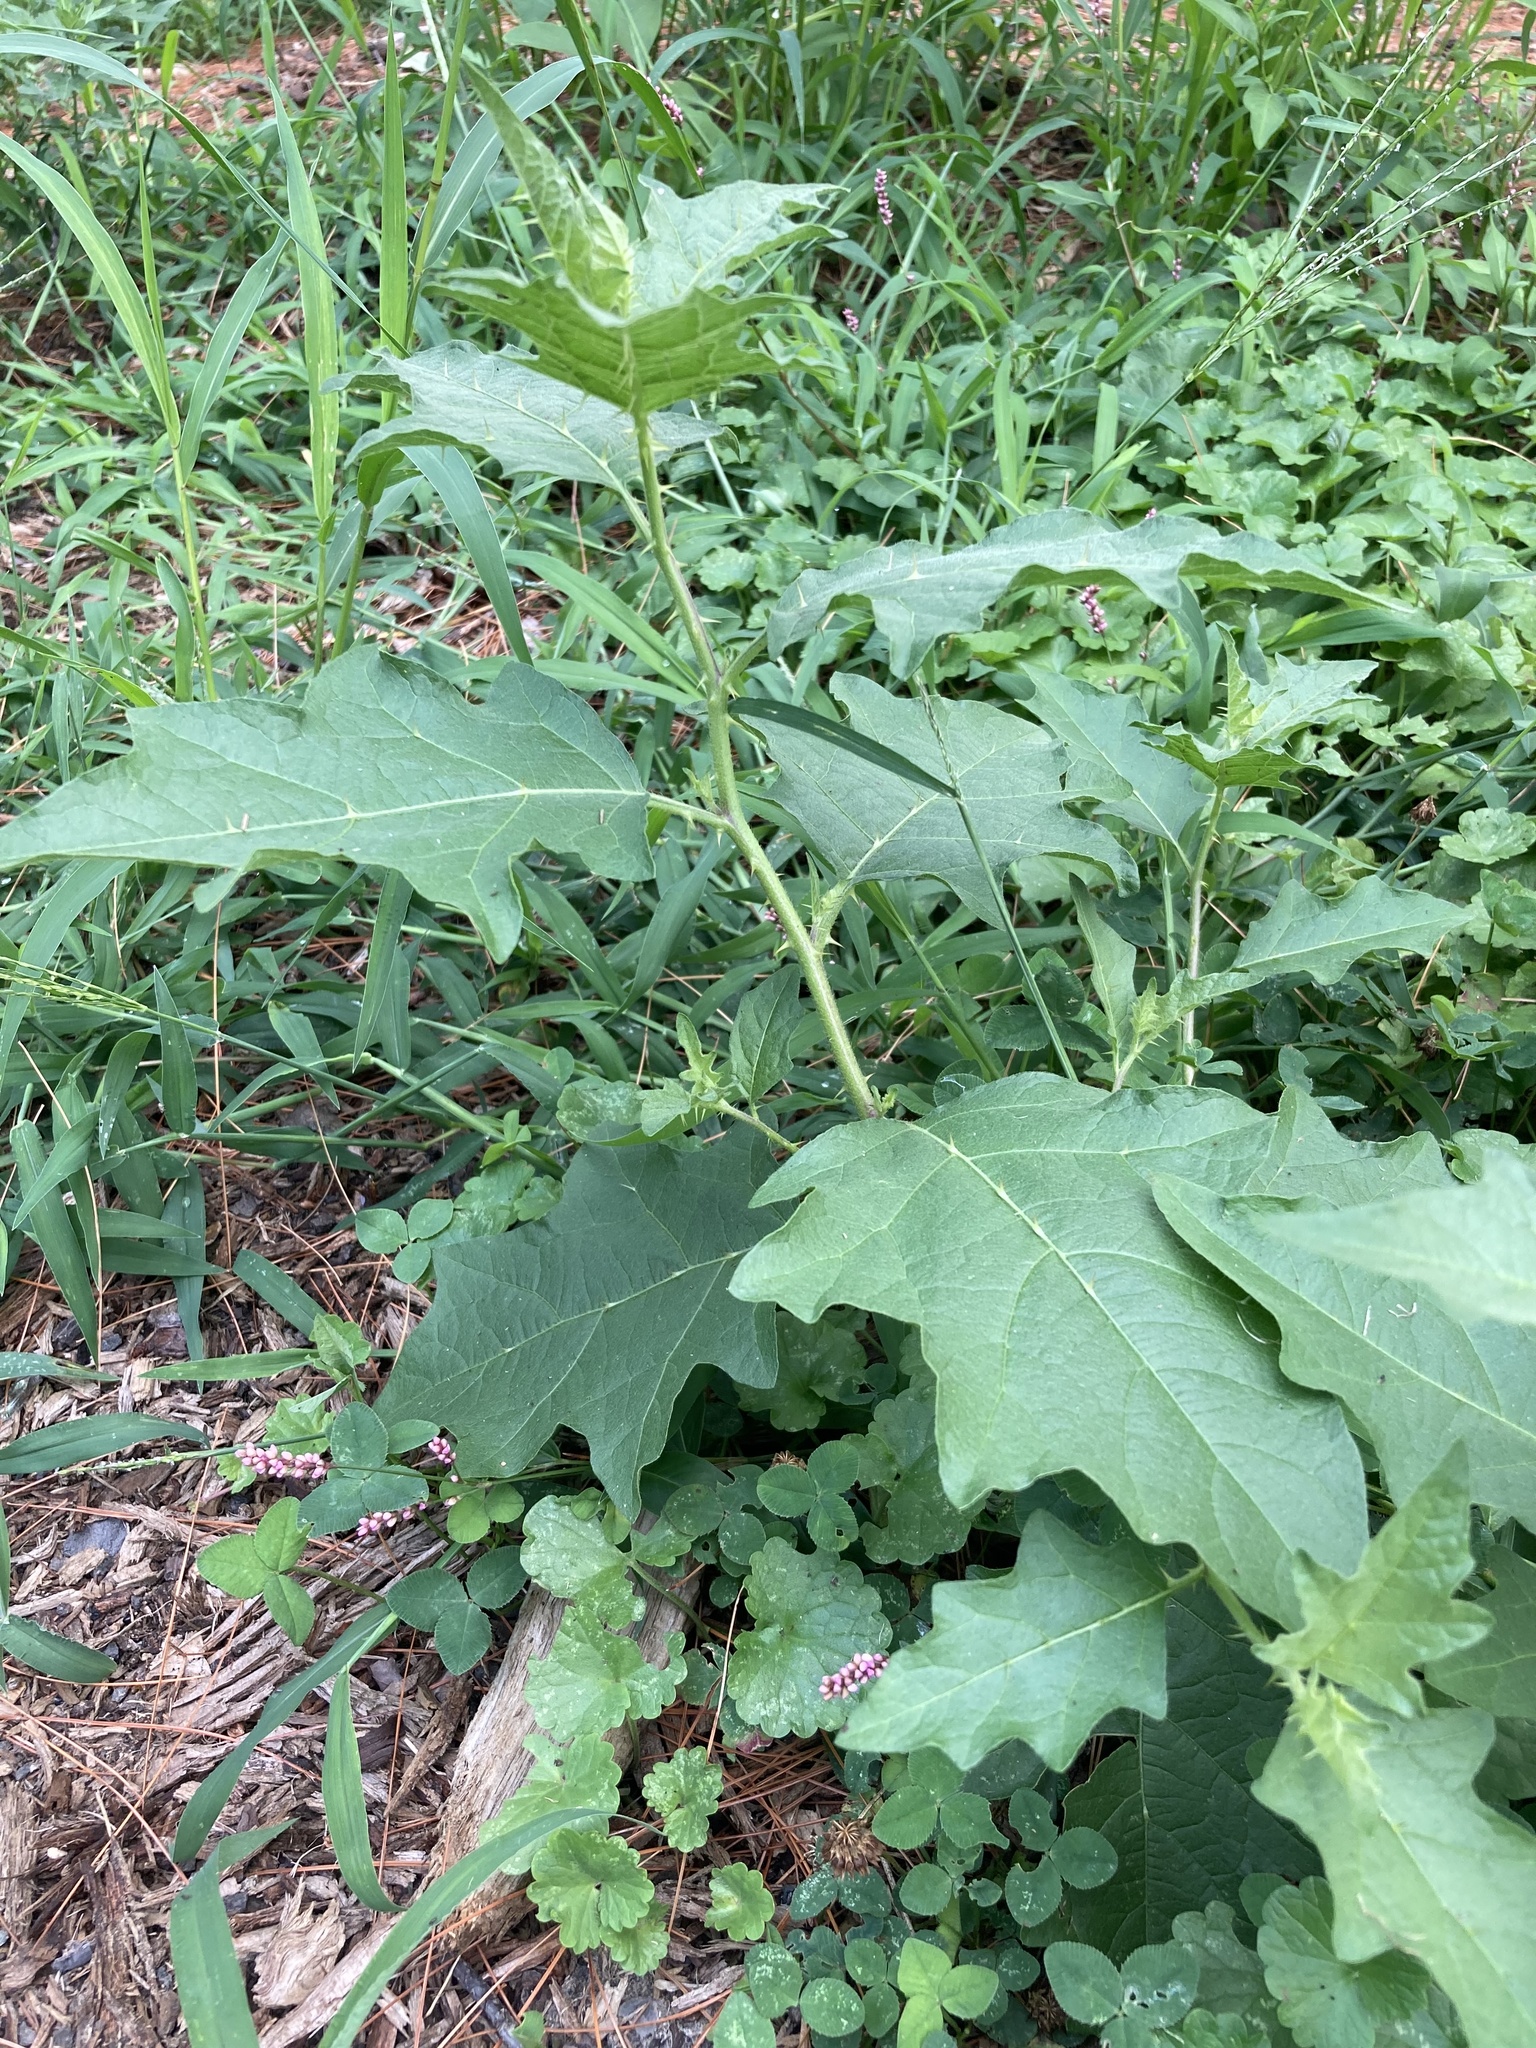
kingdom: Plantae
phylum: Tracheophyta
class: Magnoliopsida
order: Solanales
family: Solanaceae
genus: Solanum
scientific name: Solanum carolinense
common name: Horse-nettle
